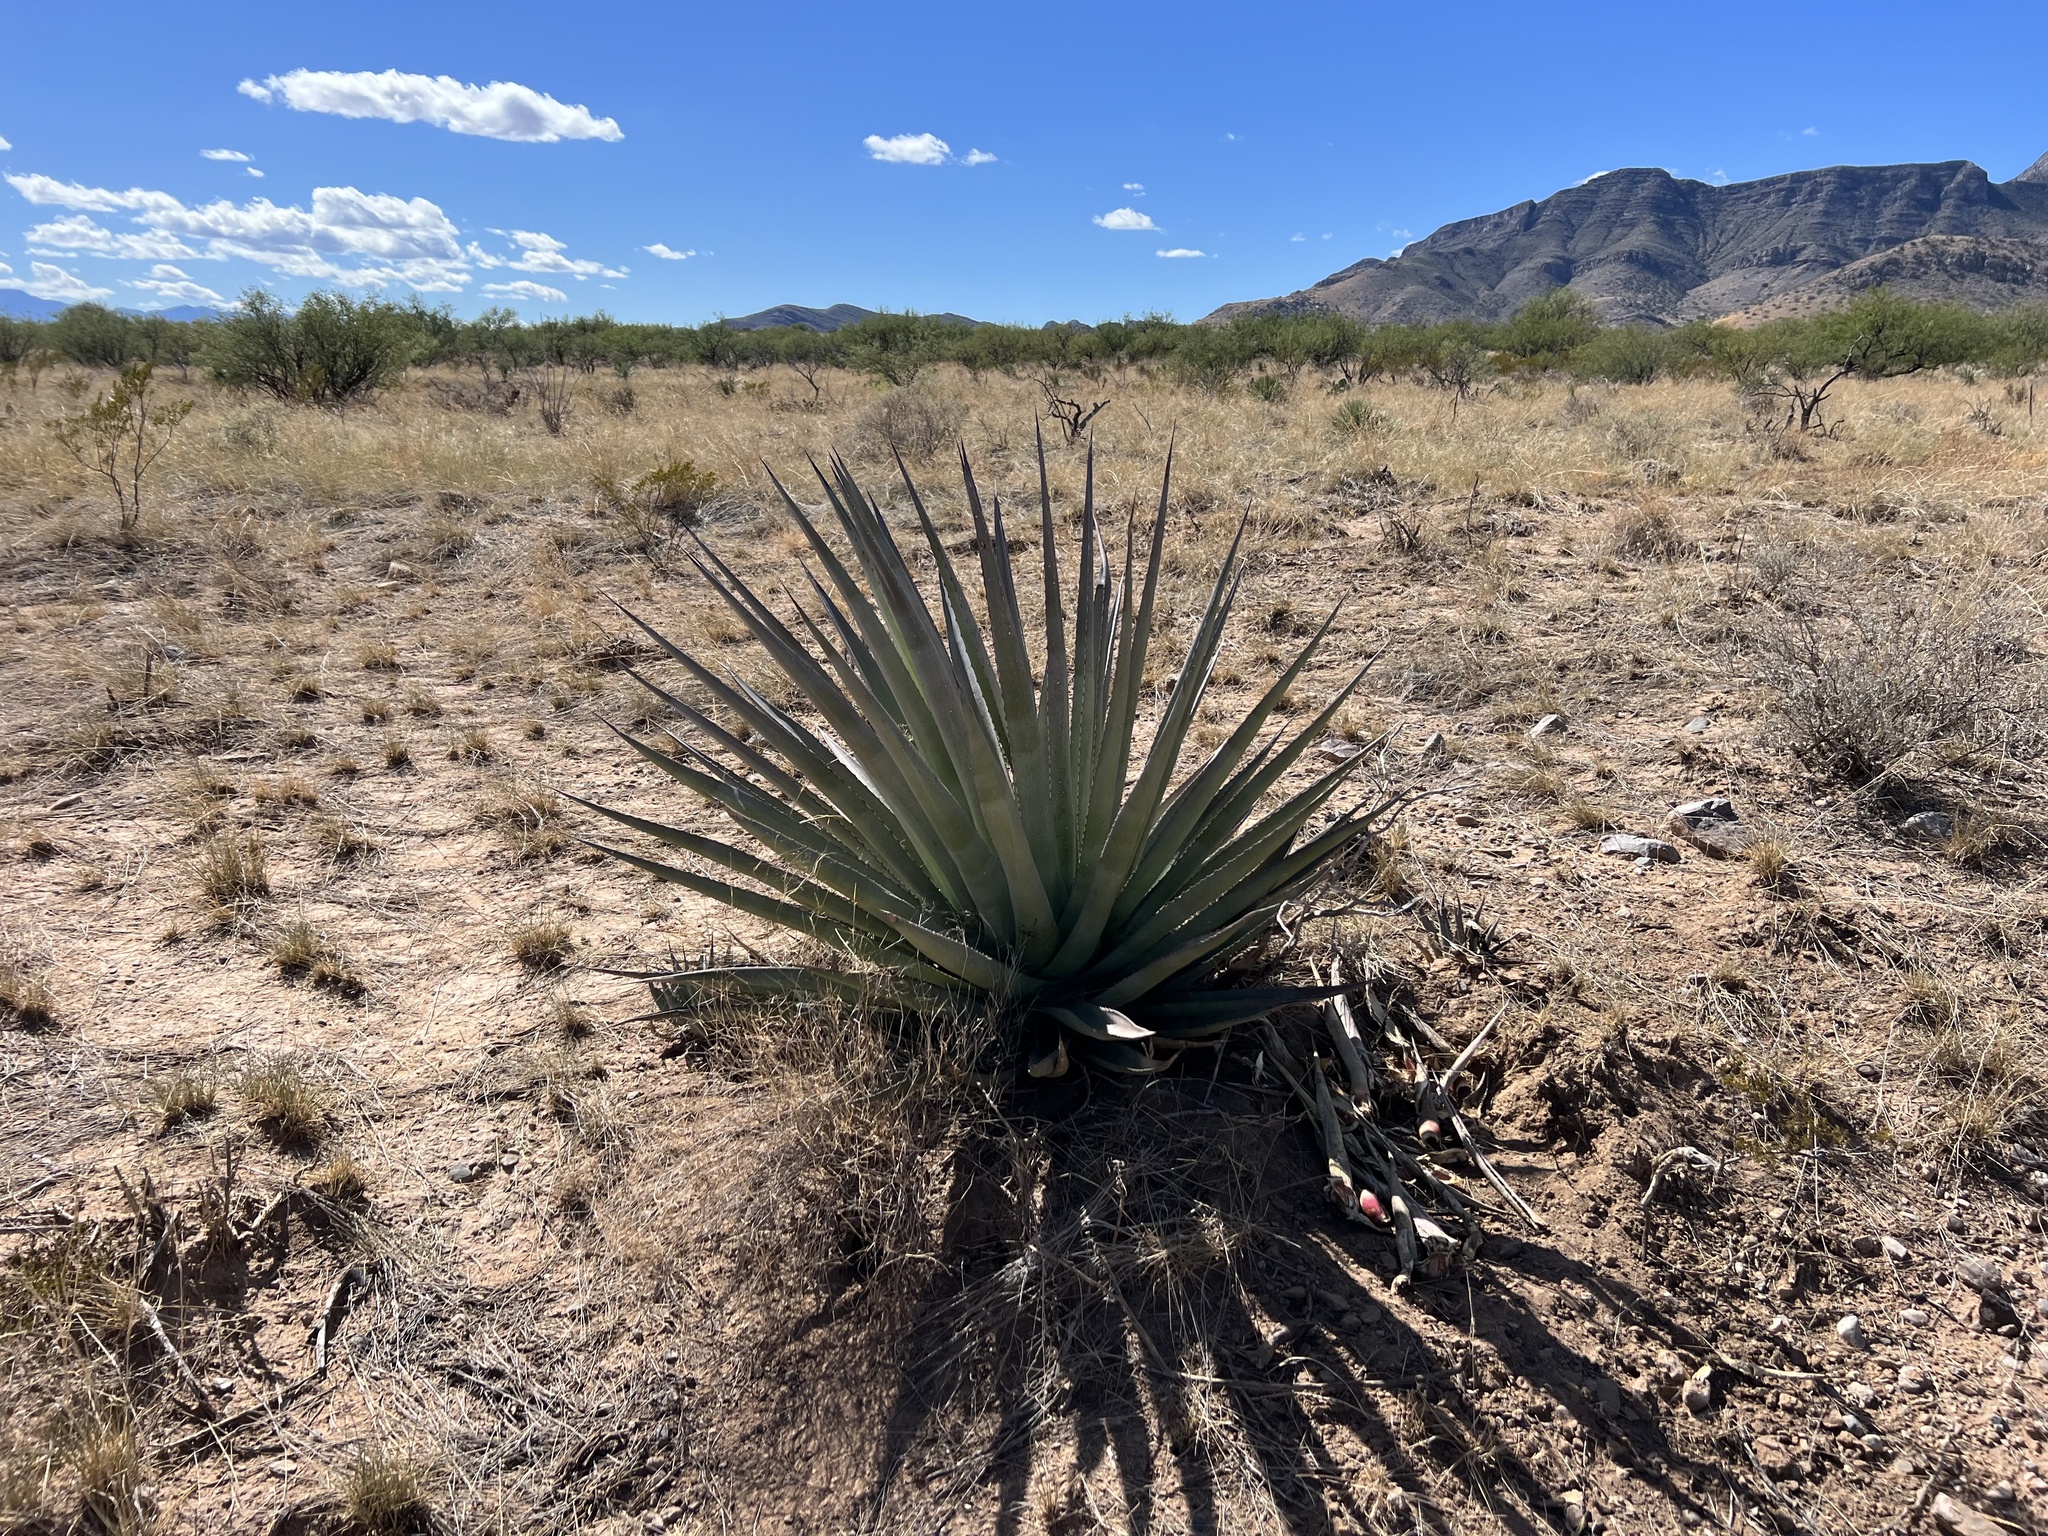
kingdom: Plantae
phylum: Tracheophyta
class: Liliopsida
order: Asparagales
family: Asparagaceae
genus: Agave
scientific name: Agave palmeri
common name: Palmer agave
